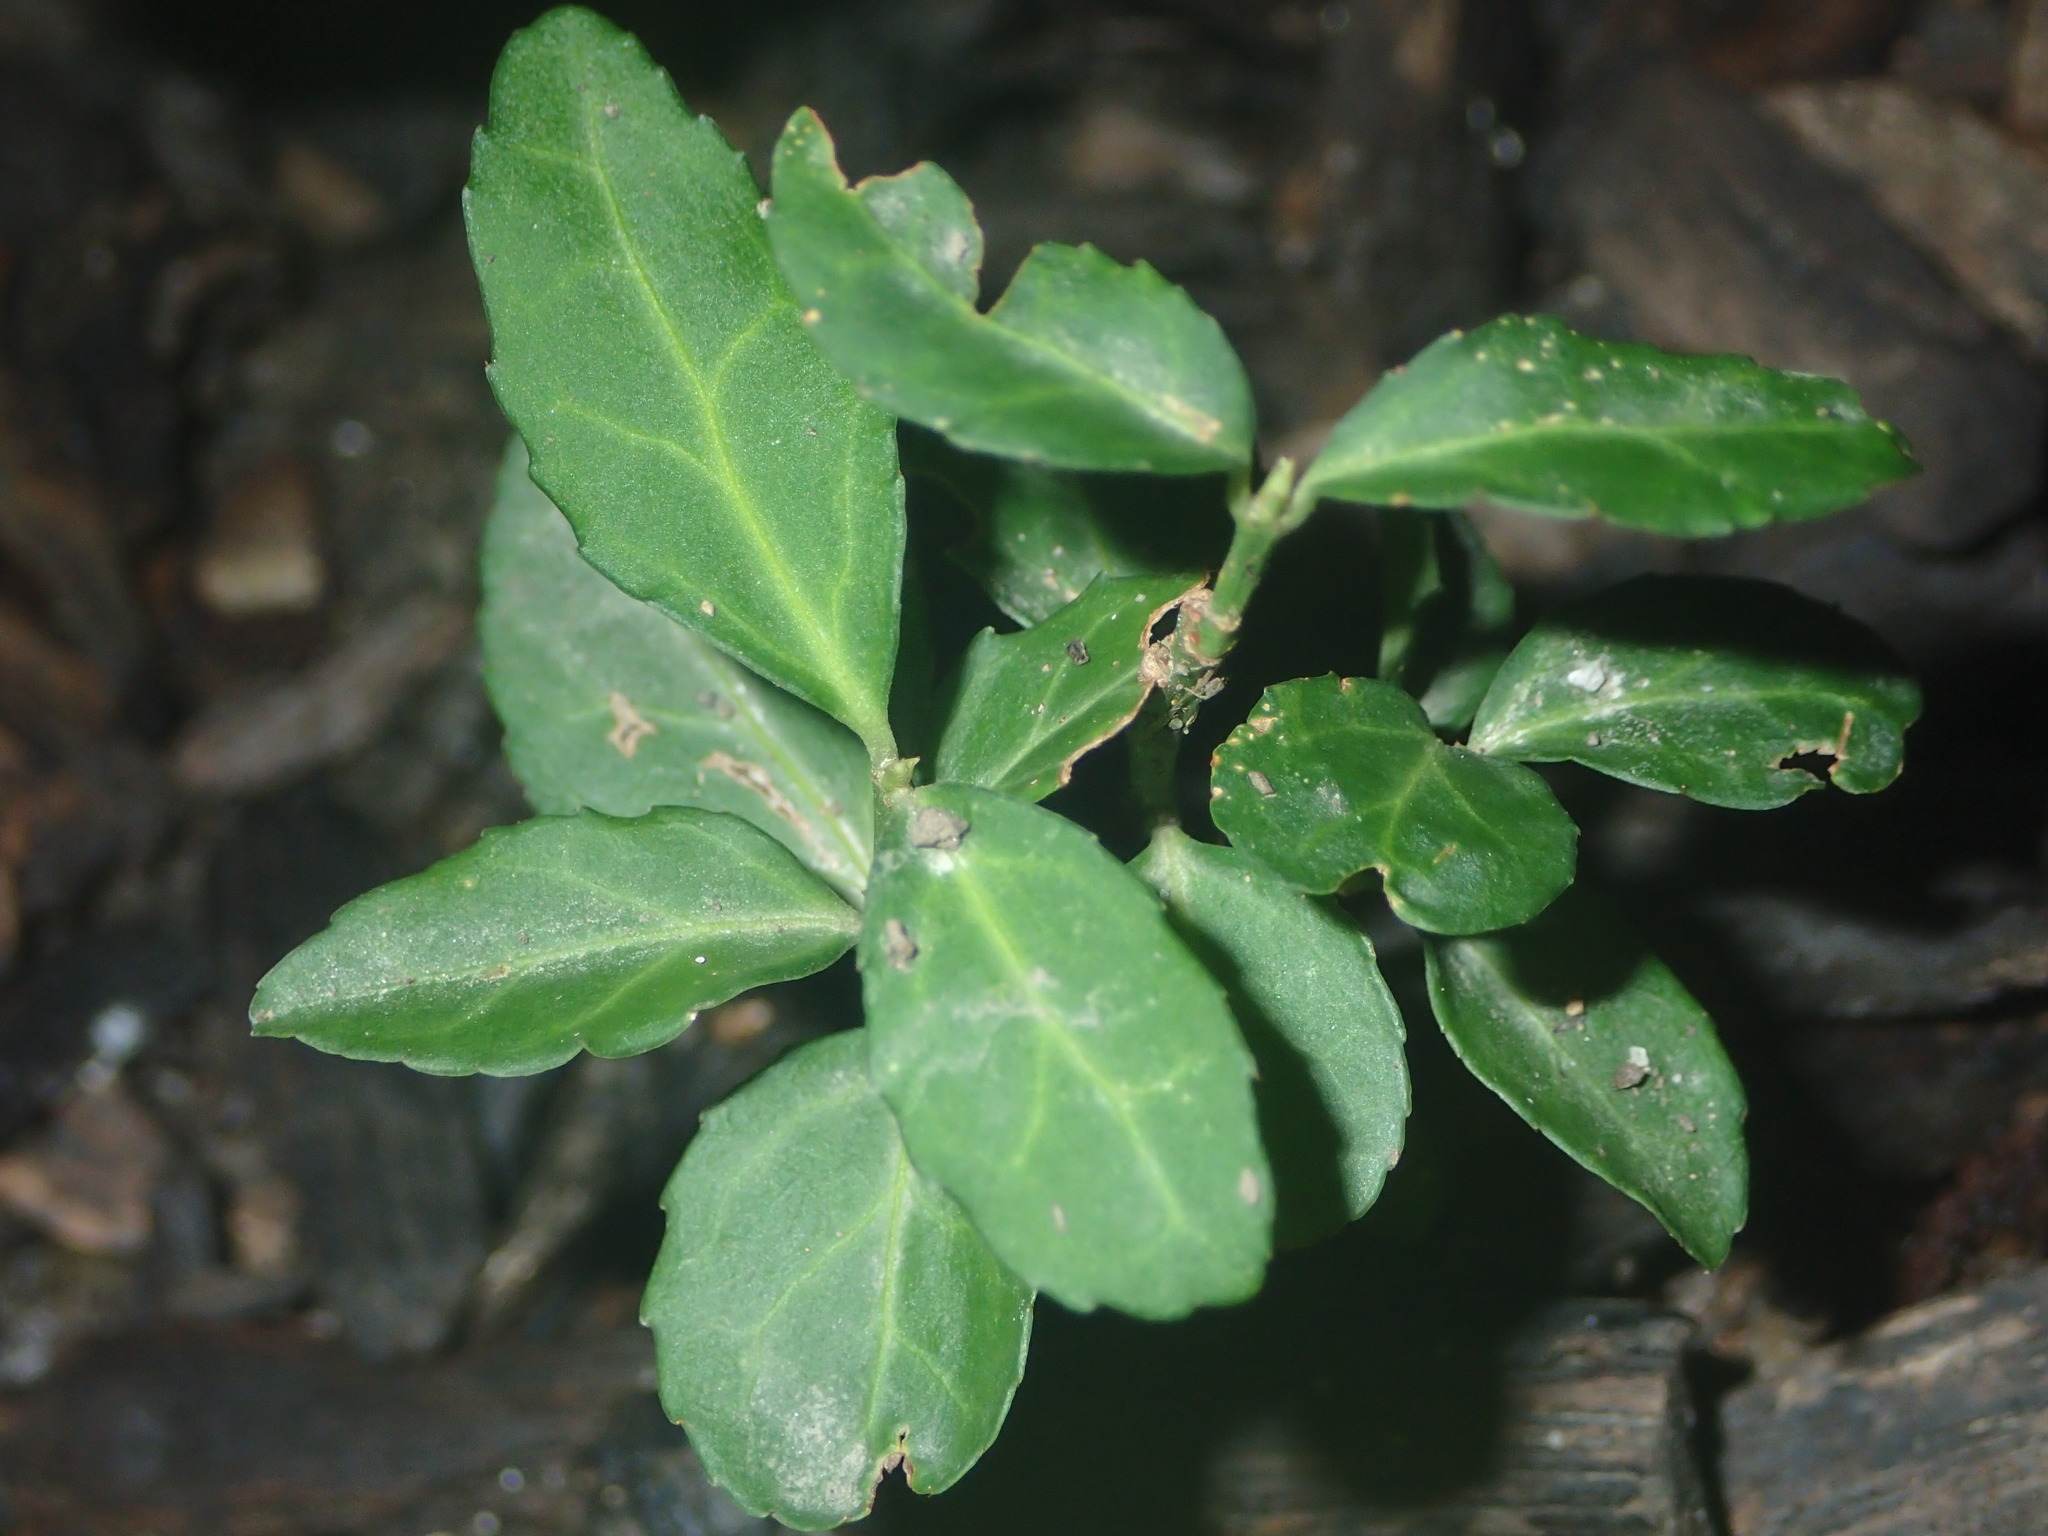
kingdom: Plantae
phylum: Tracheophyta
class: Magnoliopsida
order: Celastrales
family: Celastraceae
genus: Euonymus
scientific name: Euonymus fortunei
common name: Climbing euonymus
